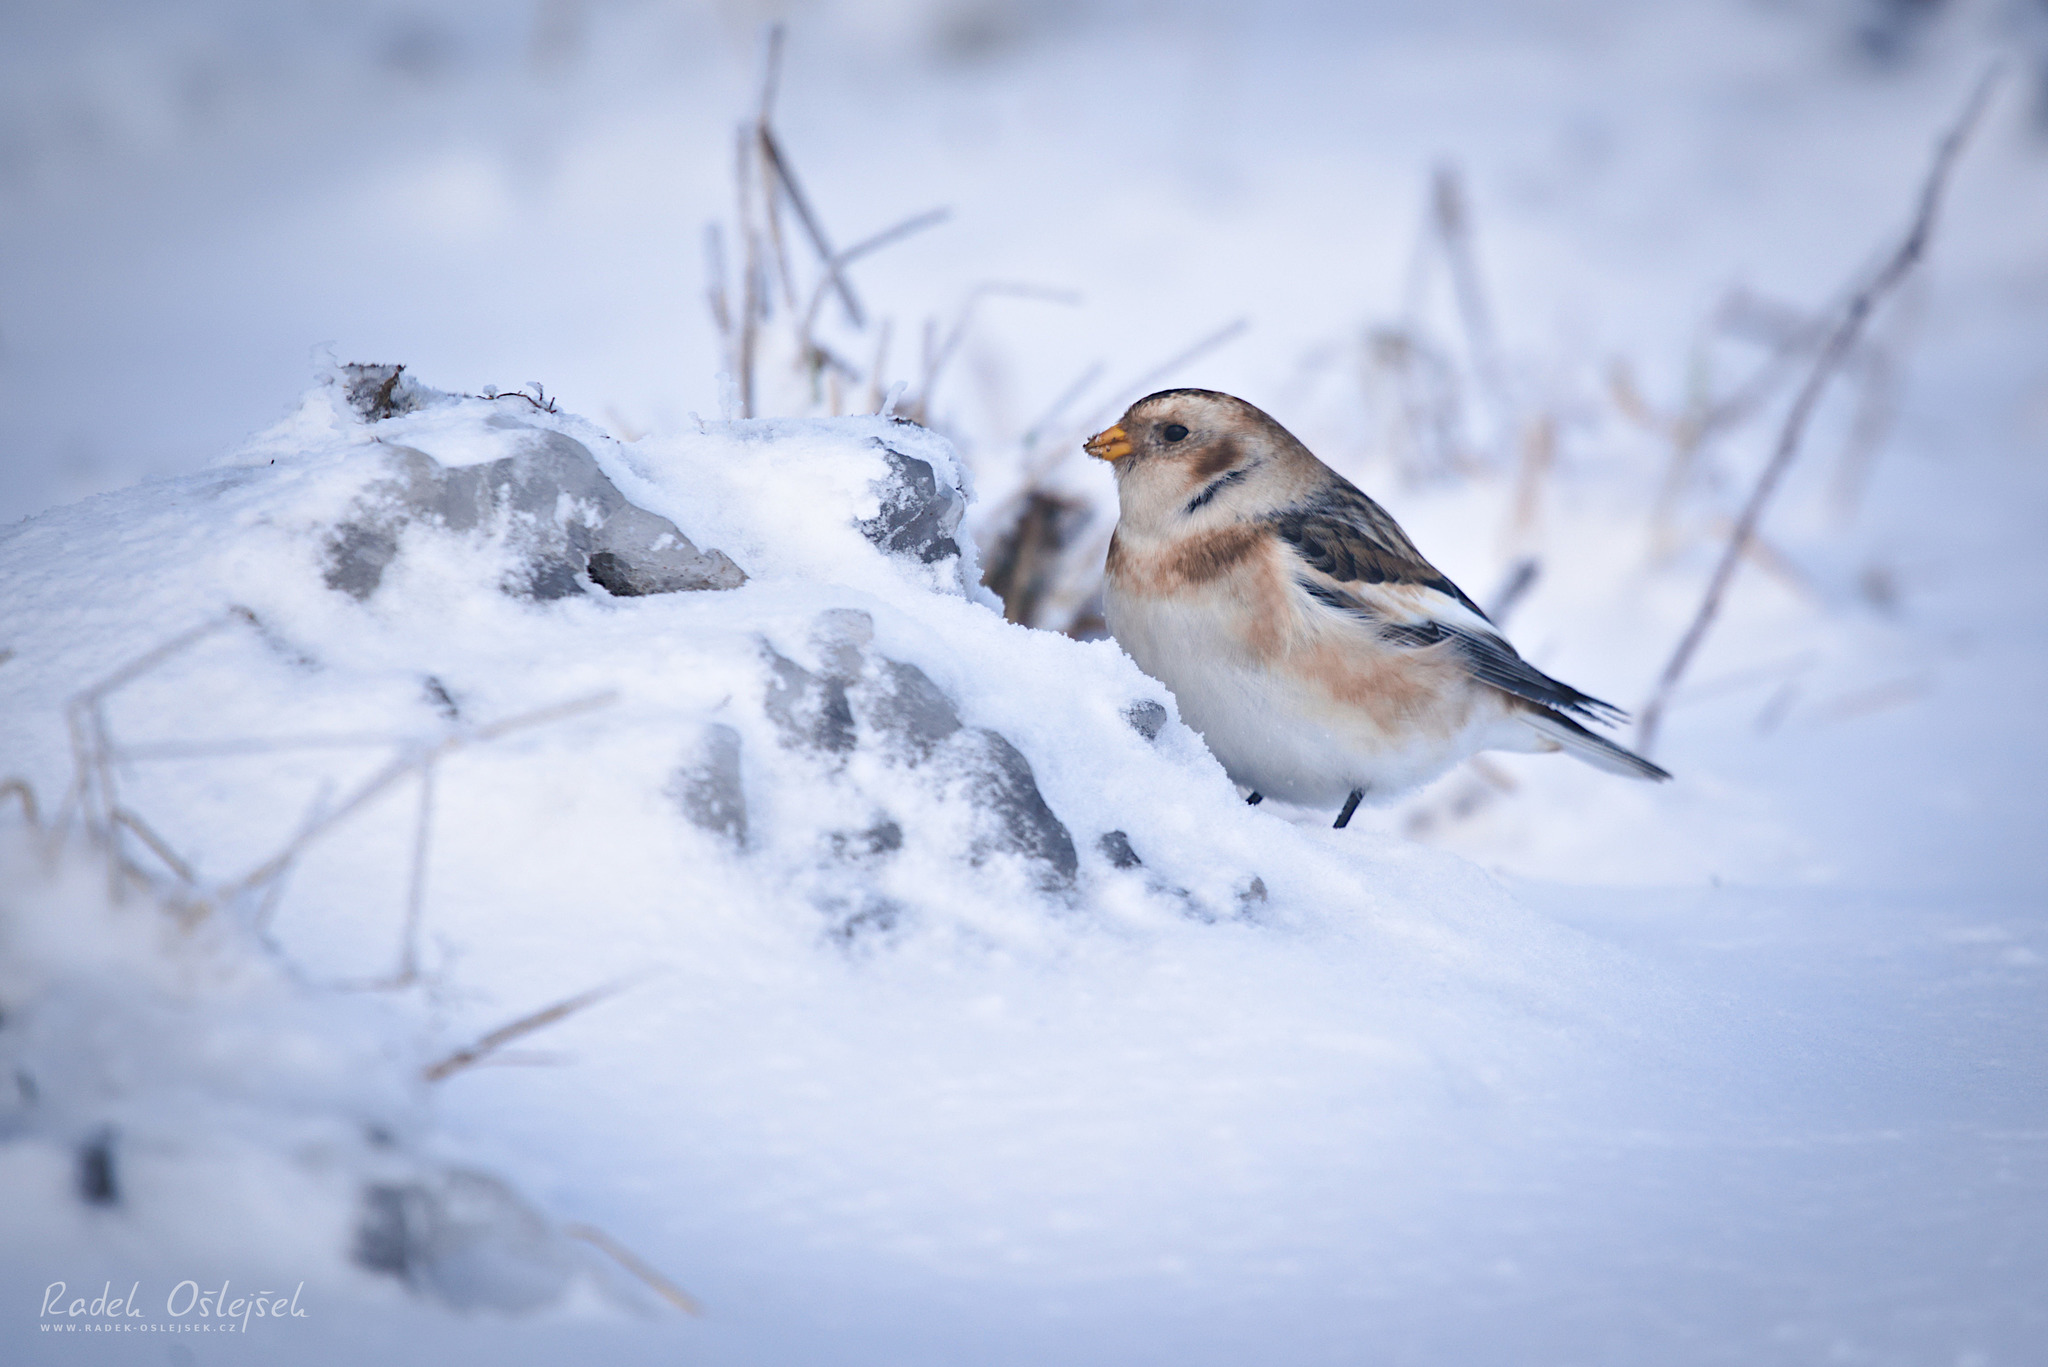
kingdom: Animalia
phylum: Chordata
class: Aves
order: Passeriformes
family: Calcariidae
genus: Plectrophenax
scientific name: Plectrophenax nivalis
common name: Snow bunting
